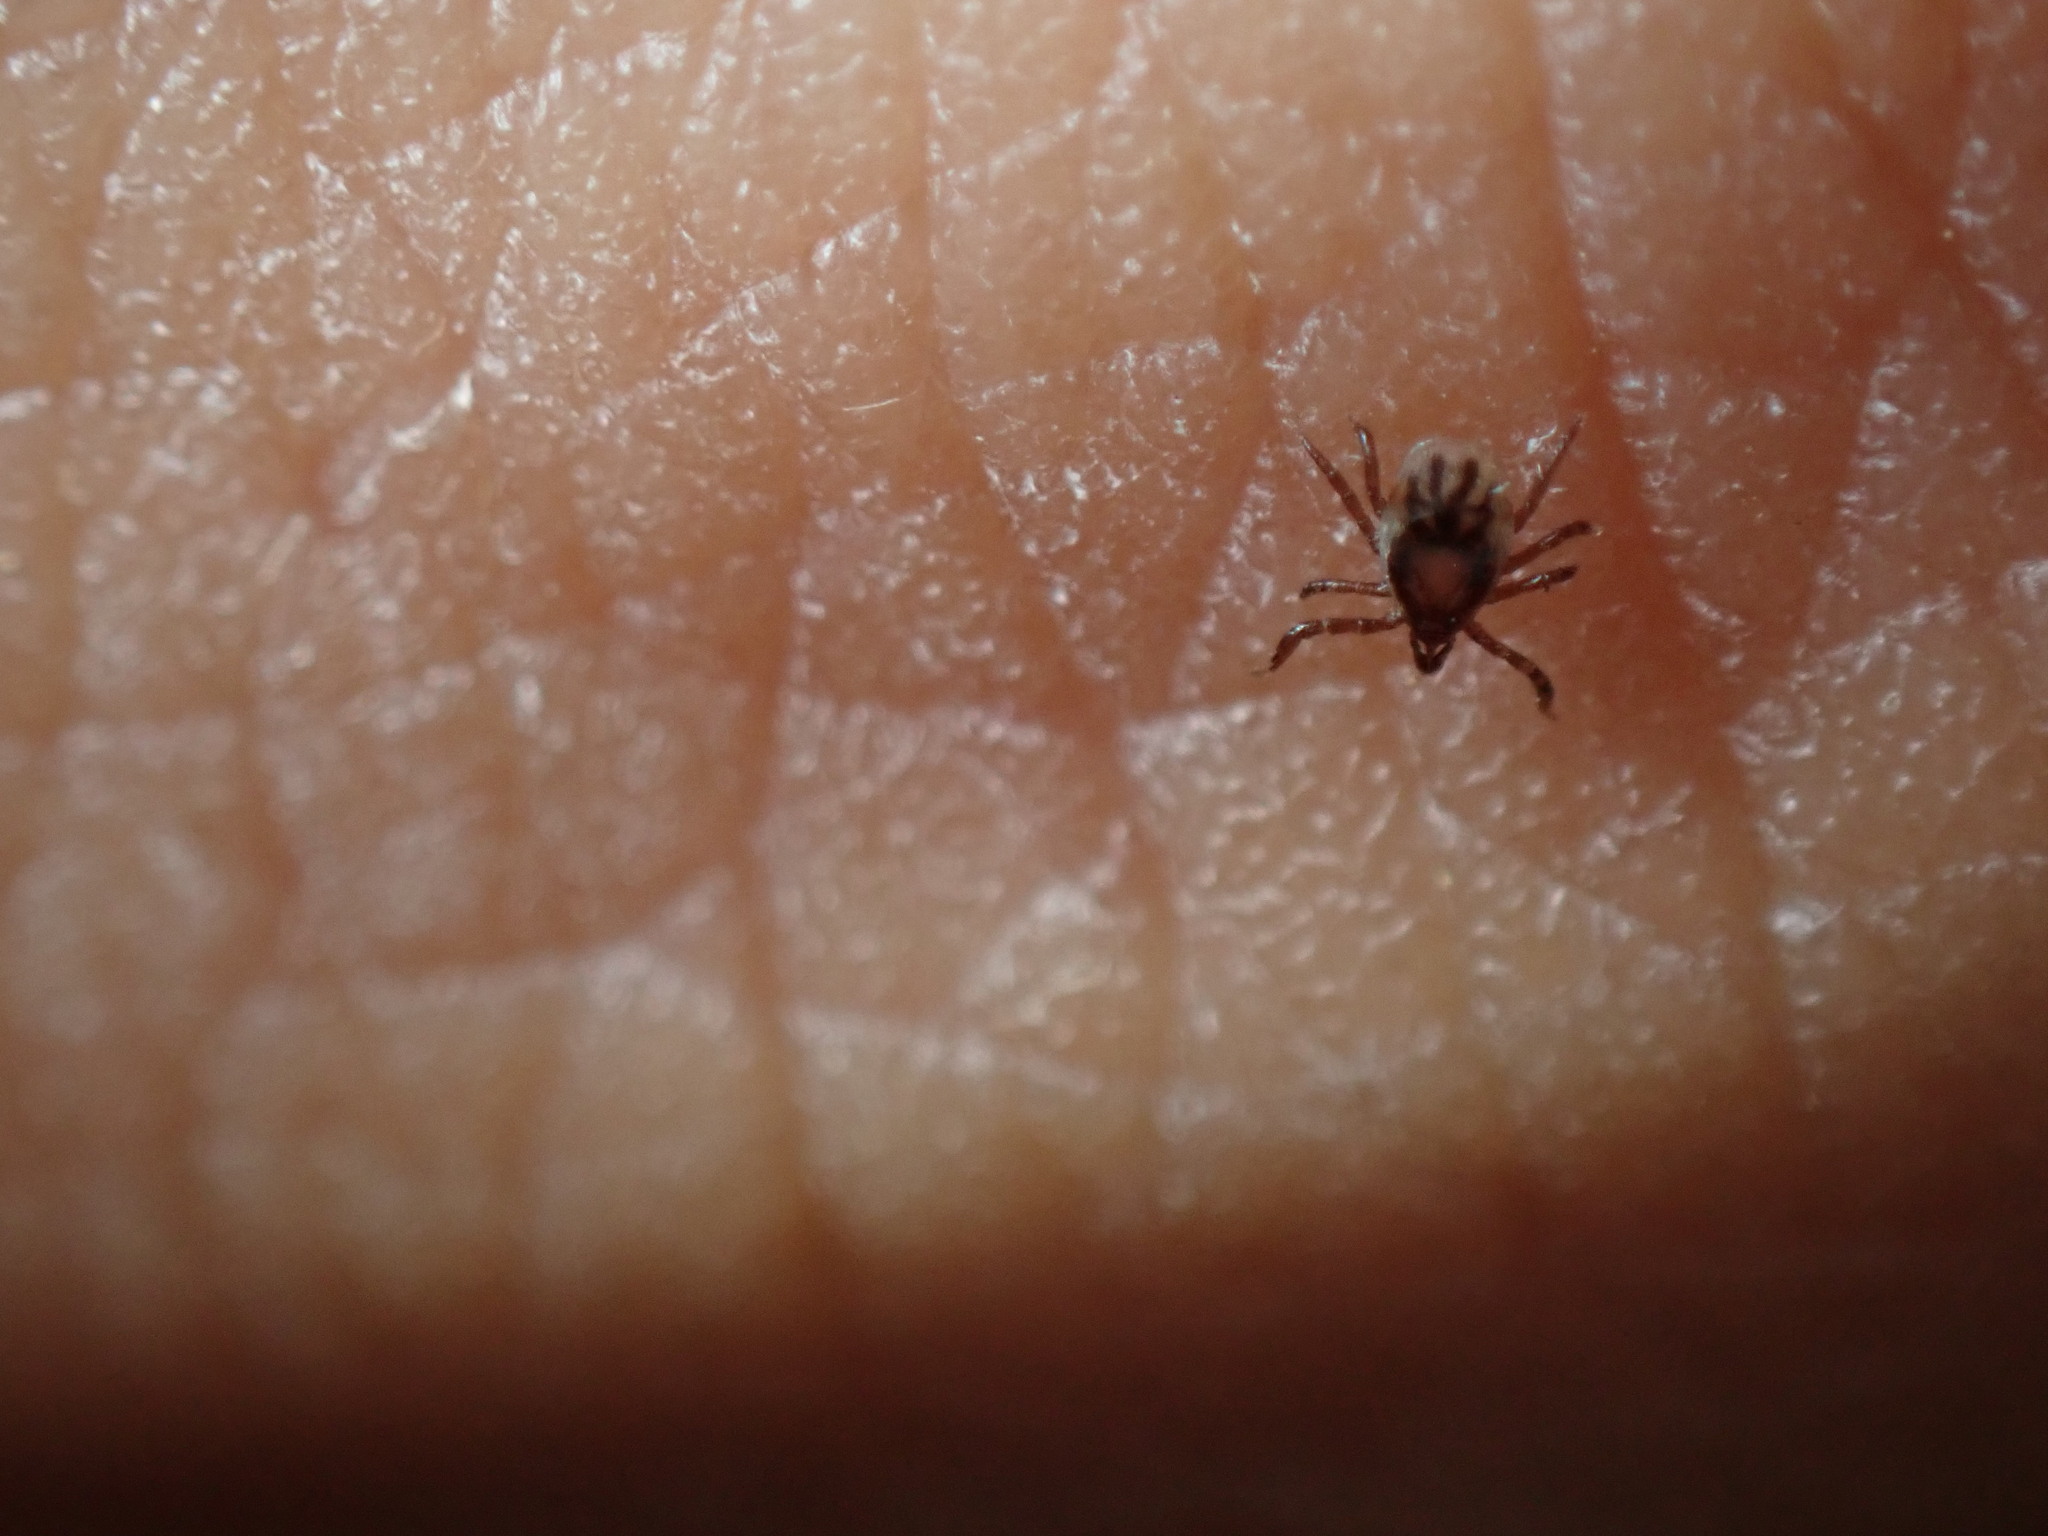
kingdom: Animalia
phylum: Arthropoda
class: Arachnida
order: Ixodida
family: Ixodidae
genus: Ixodes
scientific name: Ixodes scapularis
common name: Black legged tick
